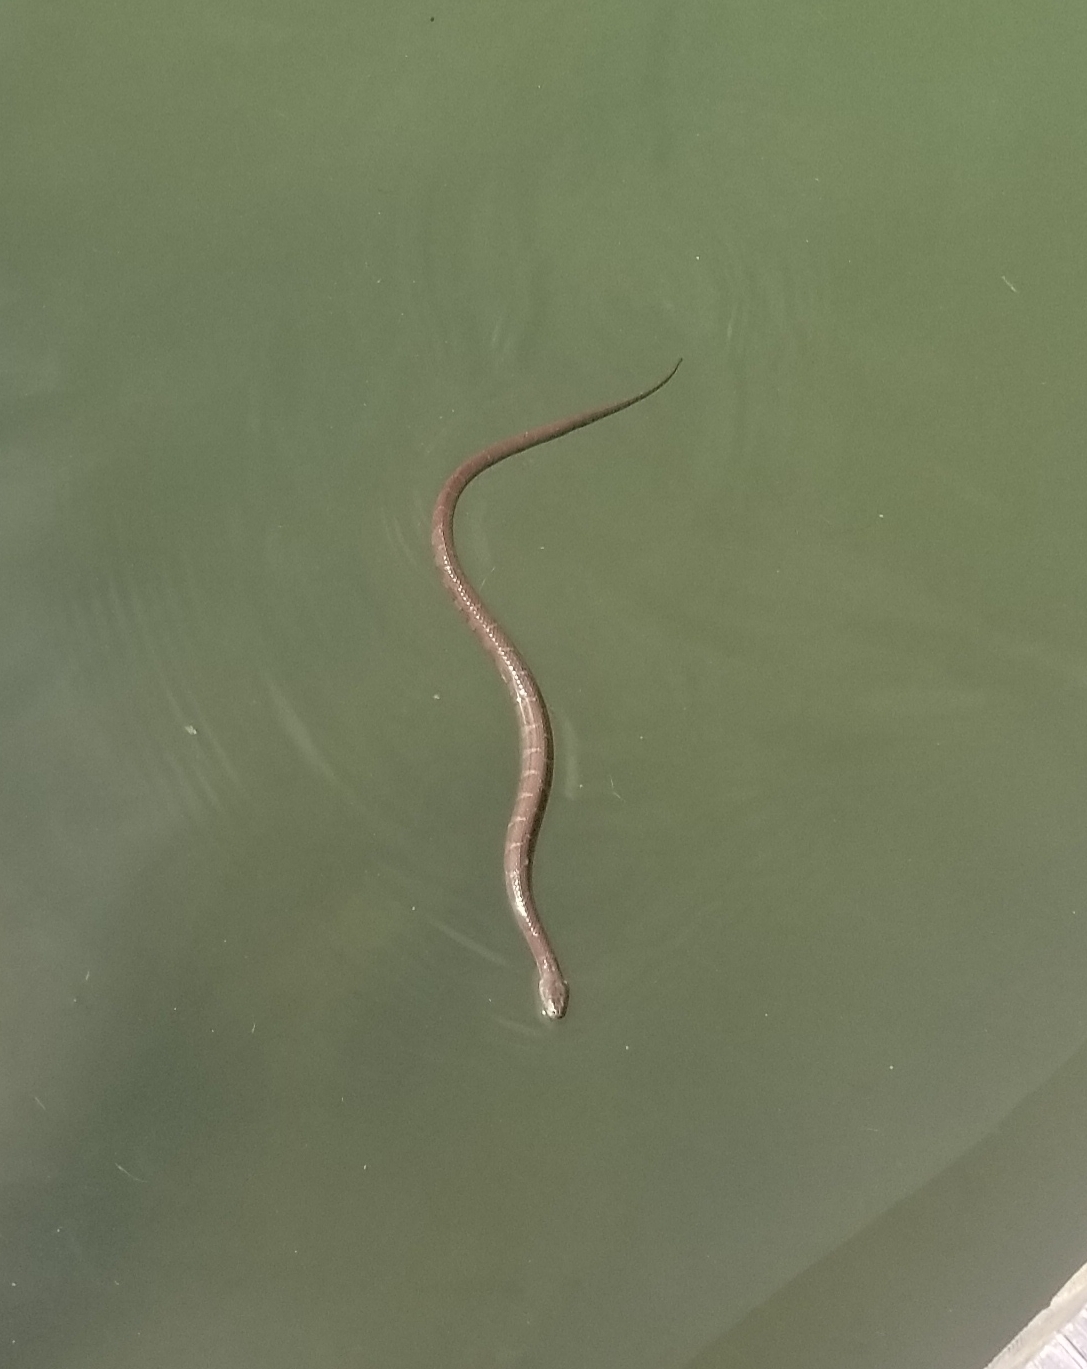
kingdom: Animalia
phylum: Chordata
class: Squamata
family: Colubridae
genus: Nerodia
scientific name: Nerodia sipedon
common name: Northern water snake
